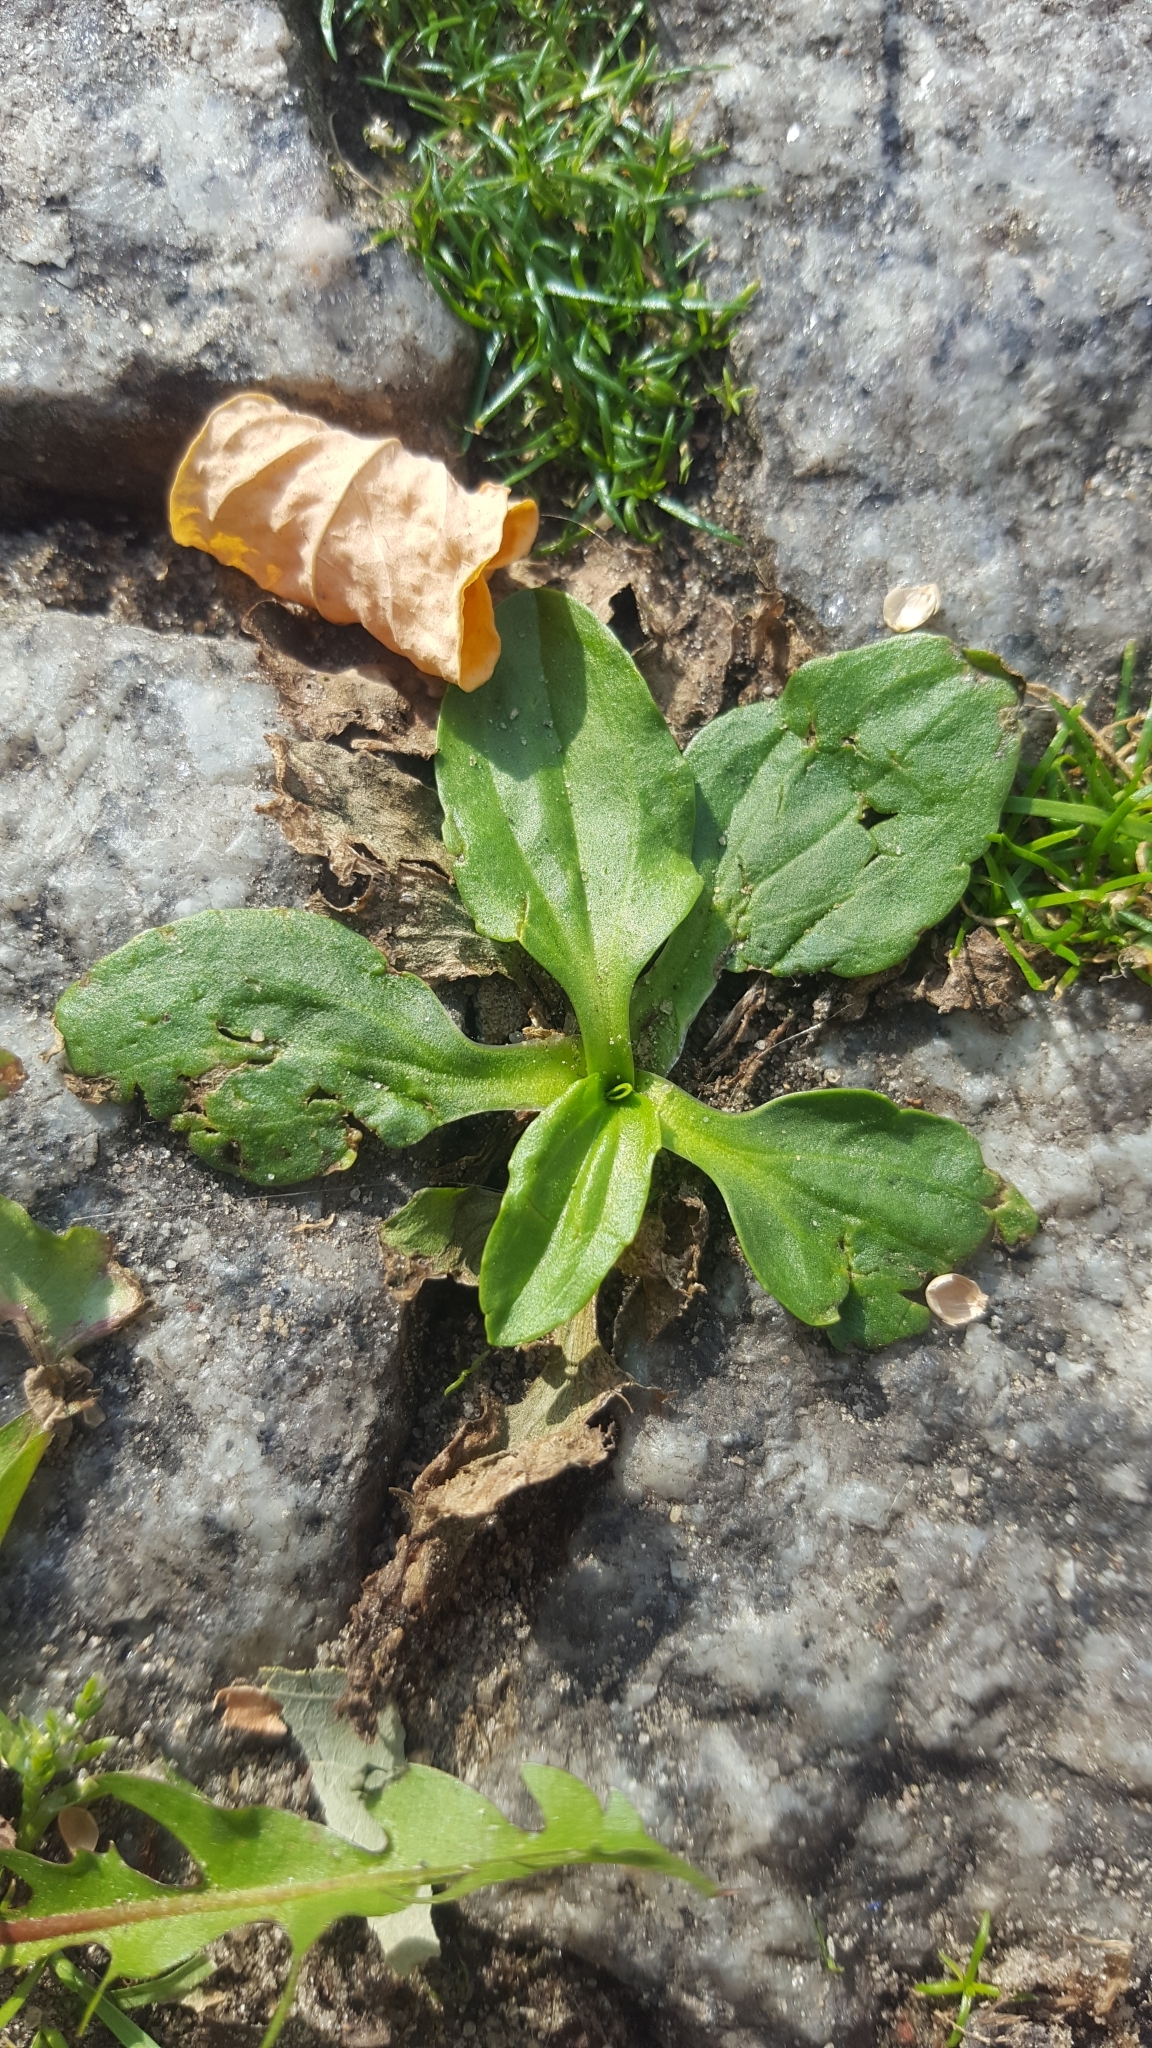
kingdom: Plantae
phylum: Tracheophyta
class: Magnoliopsida
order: Lamiales
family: Plantaginaceae
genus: Plantago
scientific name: Plantago major
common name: Common plantain
